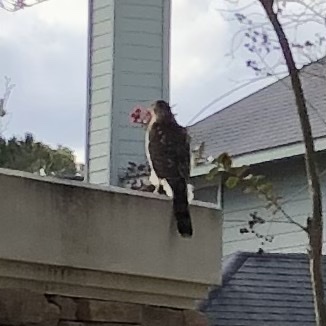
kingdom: Animalia
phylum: Chordata
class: Aves
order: Accipitriformes
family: Accipitridae
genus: Accipiter
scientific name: Accipiter cooperii
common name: Cooper's hawk
